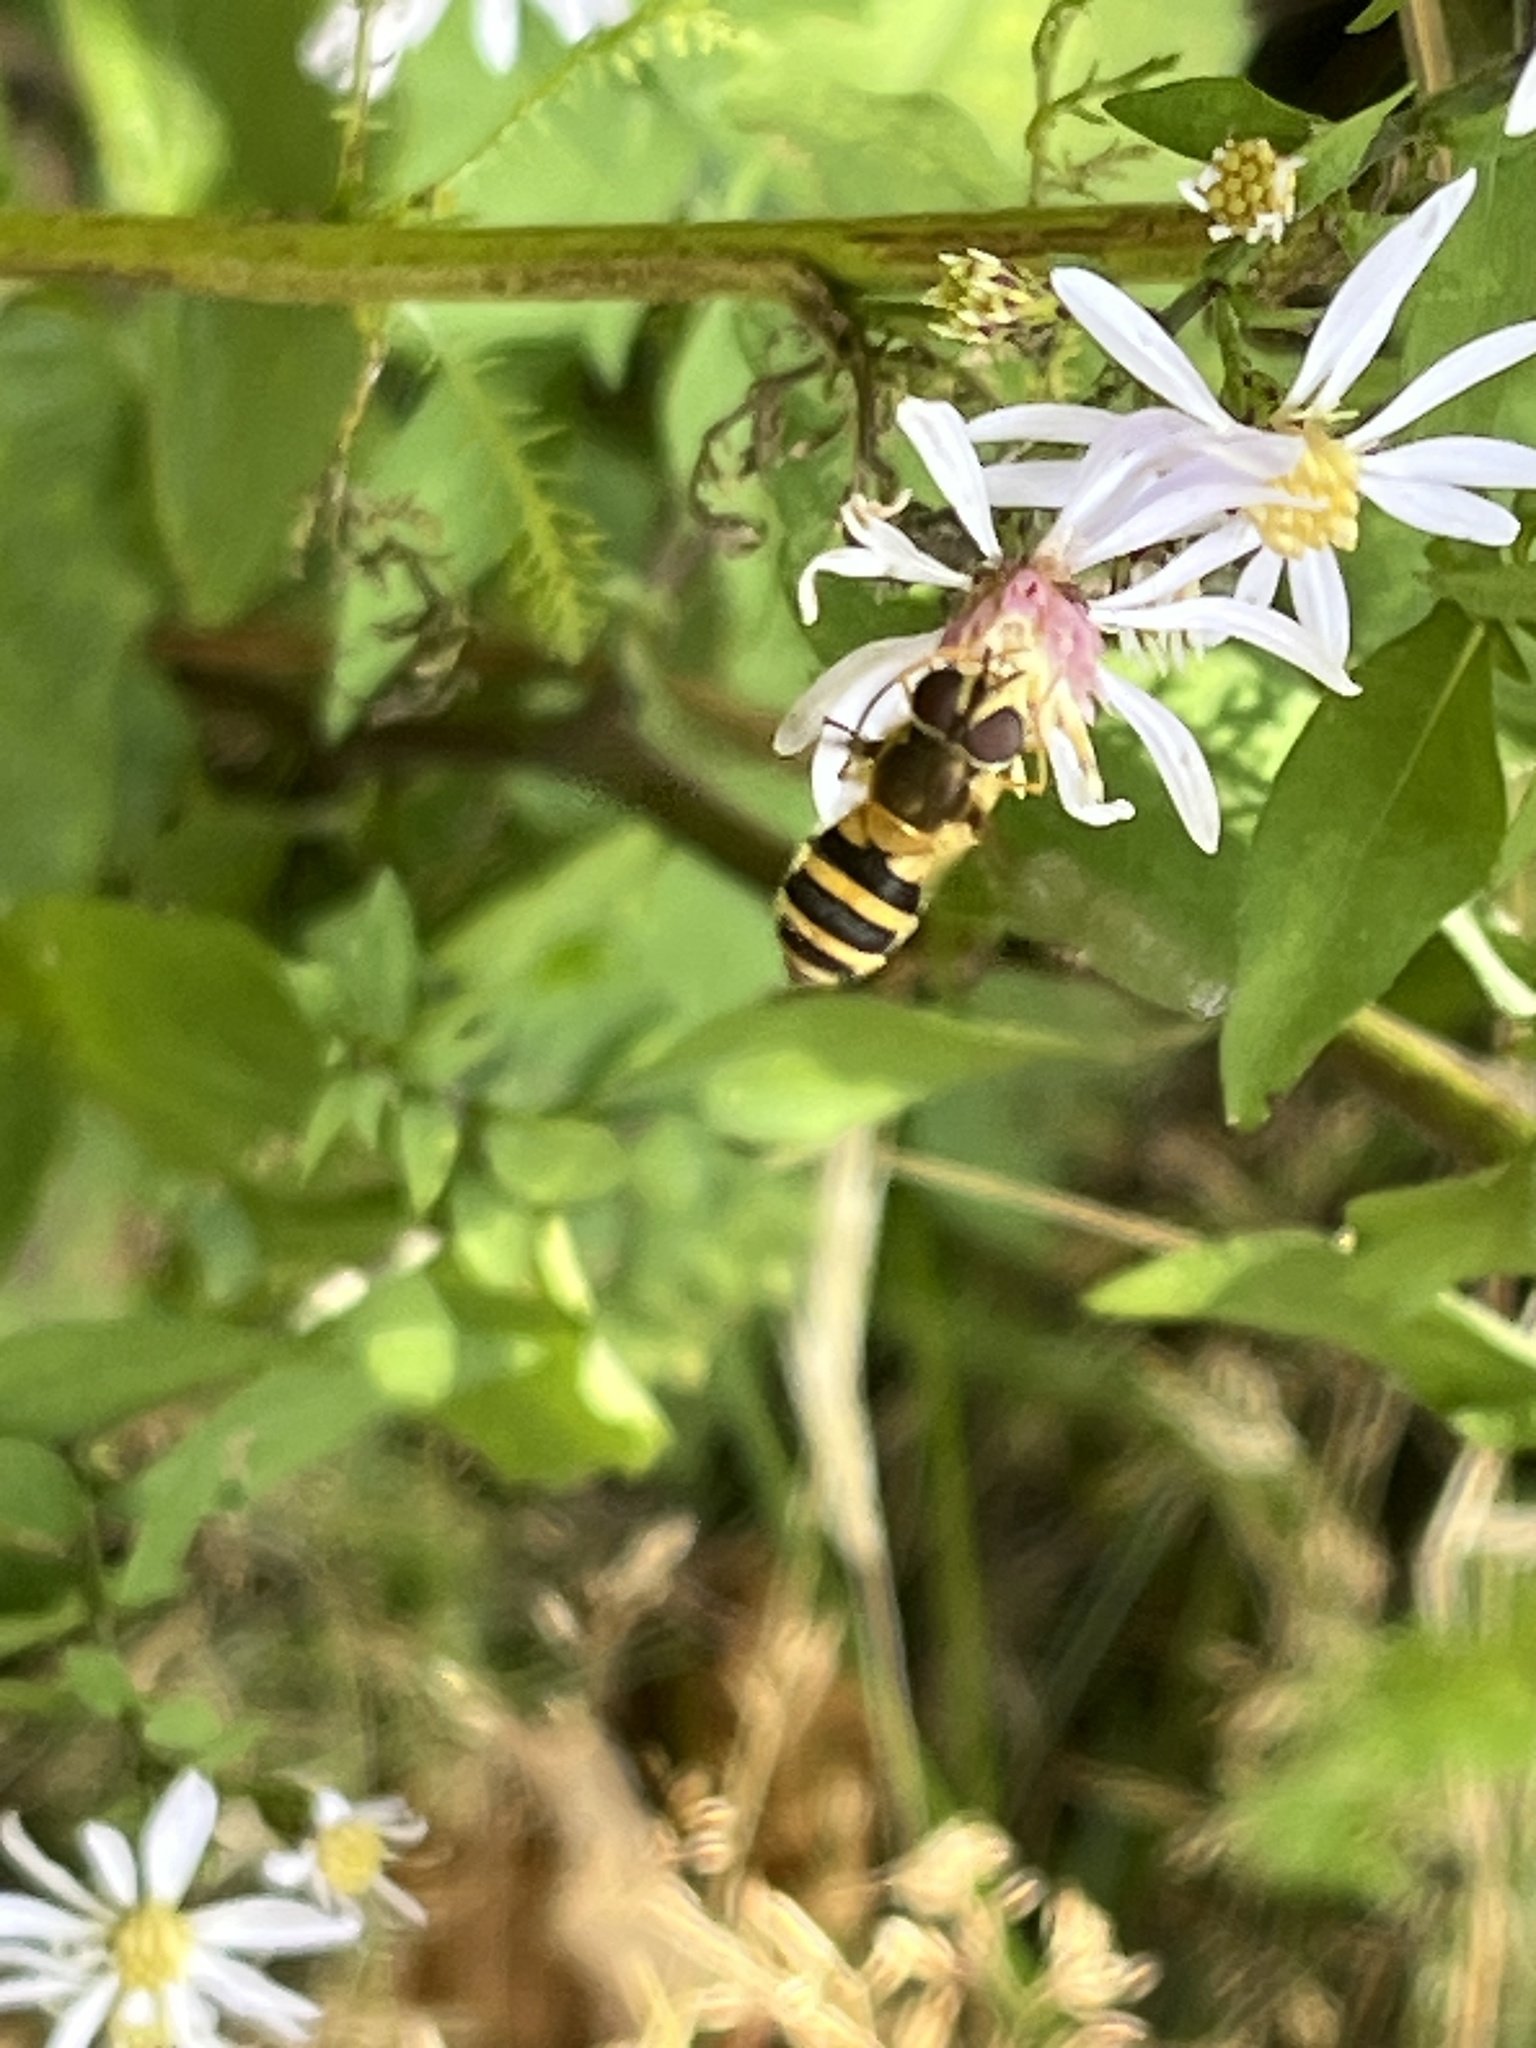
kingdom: Animalia
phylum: Arthropoda
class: Insecta
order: Diptera
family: Syrphidae
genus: Epistrophe
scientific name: Epistrophe grossulariae
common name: Black-horned smoothtail
